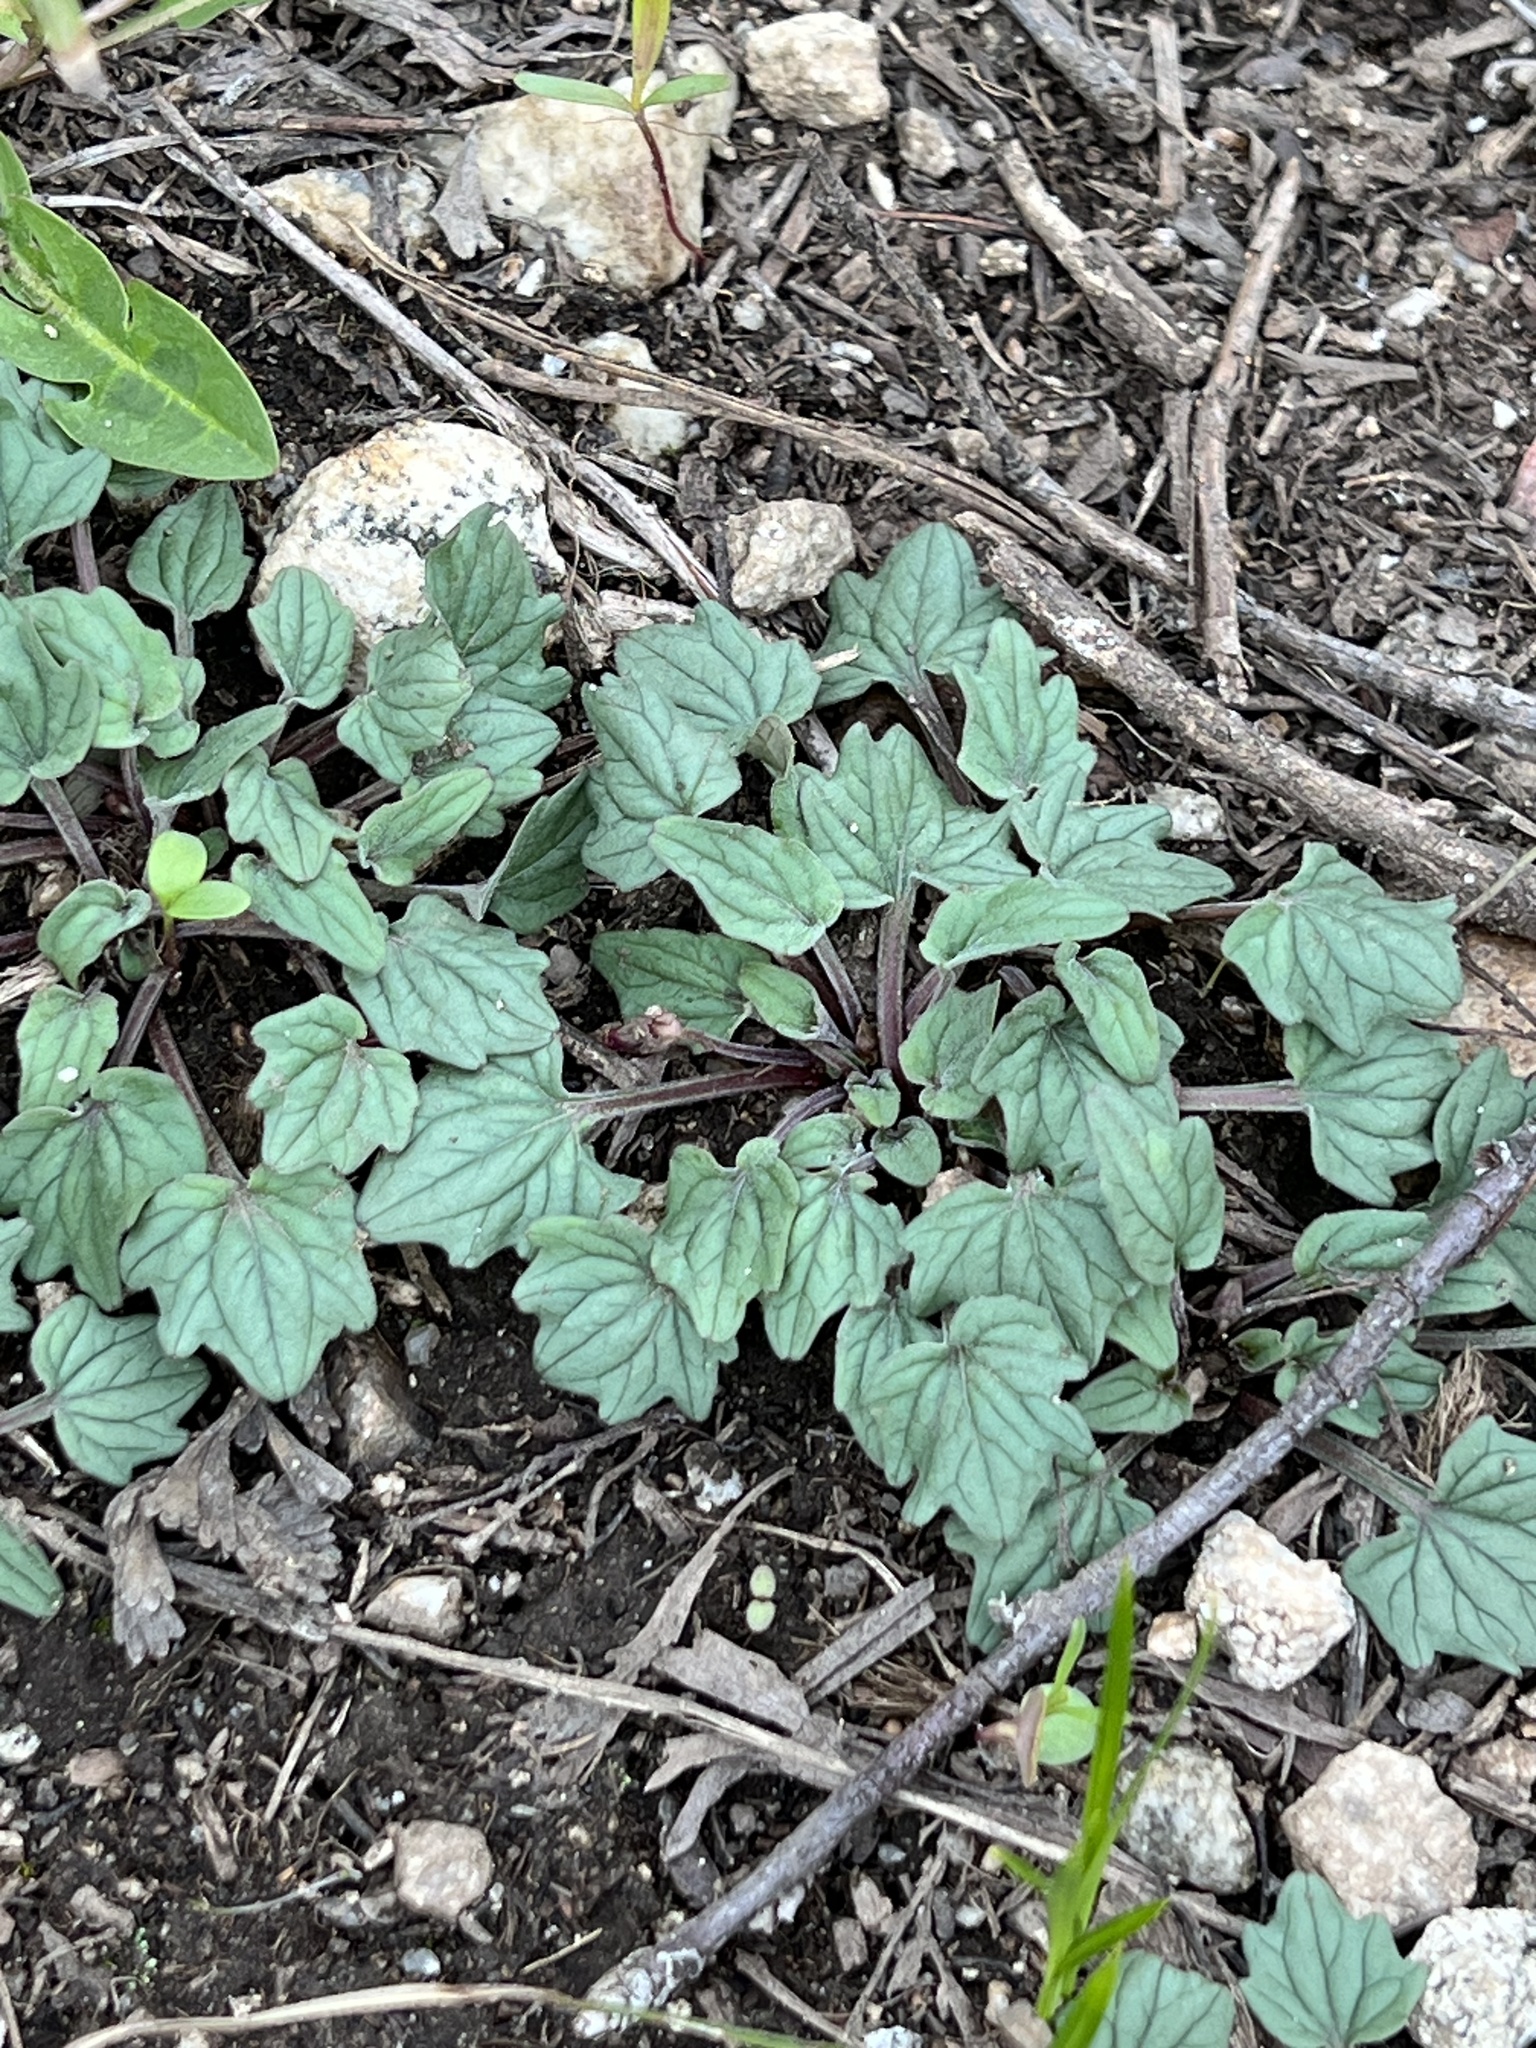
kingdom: Plantae
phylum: Tracheophyta
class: Magnoliopsida
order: Malpighiales
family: Violaceae
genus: Viola
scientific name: Viola purpurea
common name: Pine violet
